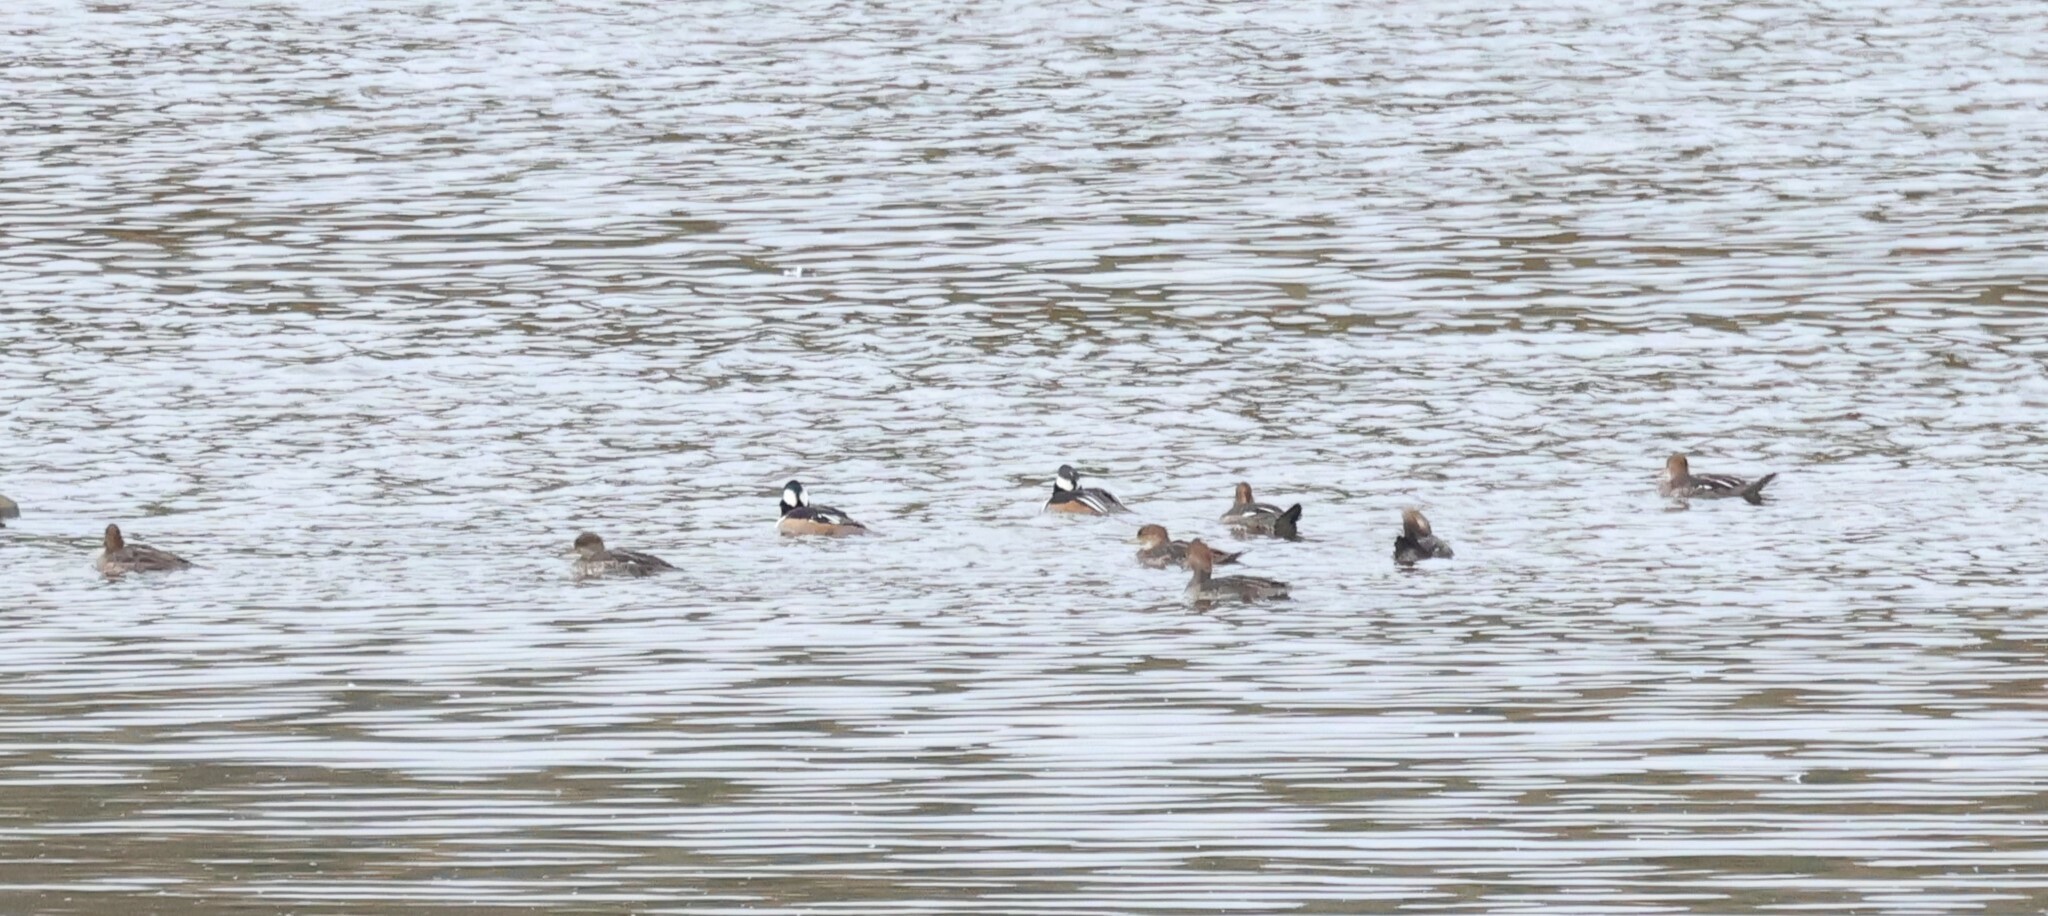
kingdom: Animalia
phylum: Chordata
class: Aves
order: Anseriformes
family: Anatidae
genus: Lophodytes
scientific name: Lophodytes cucullatus
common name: Hooded merganser
